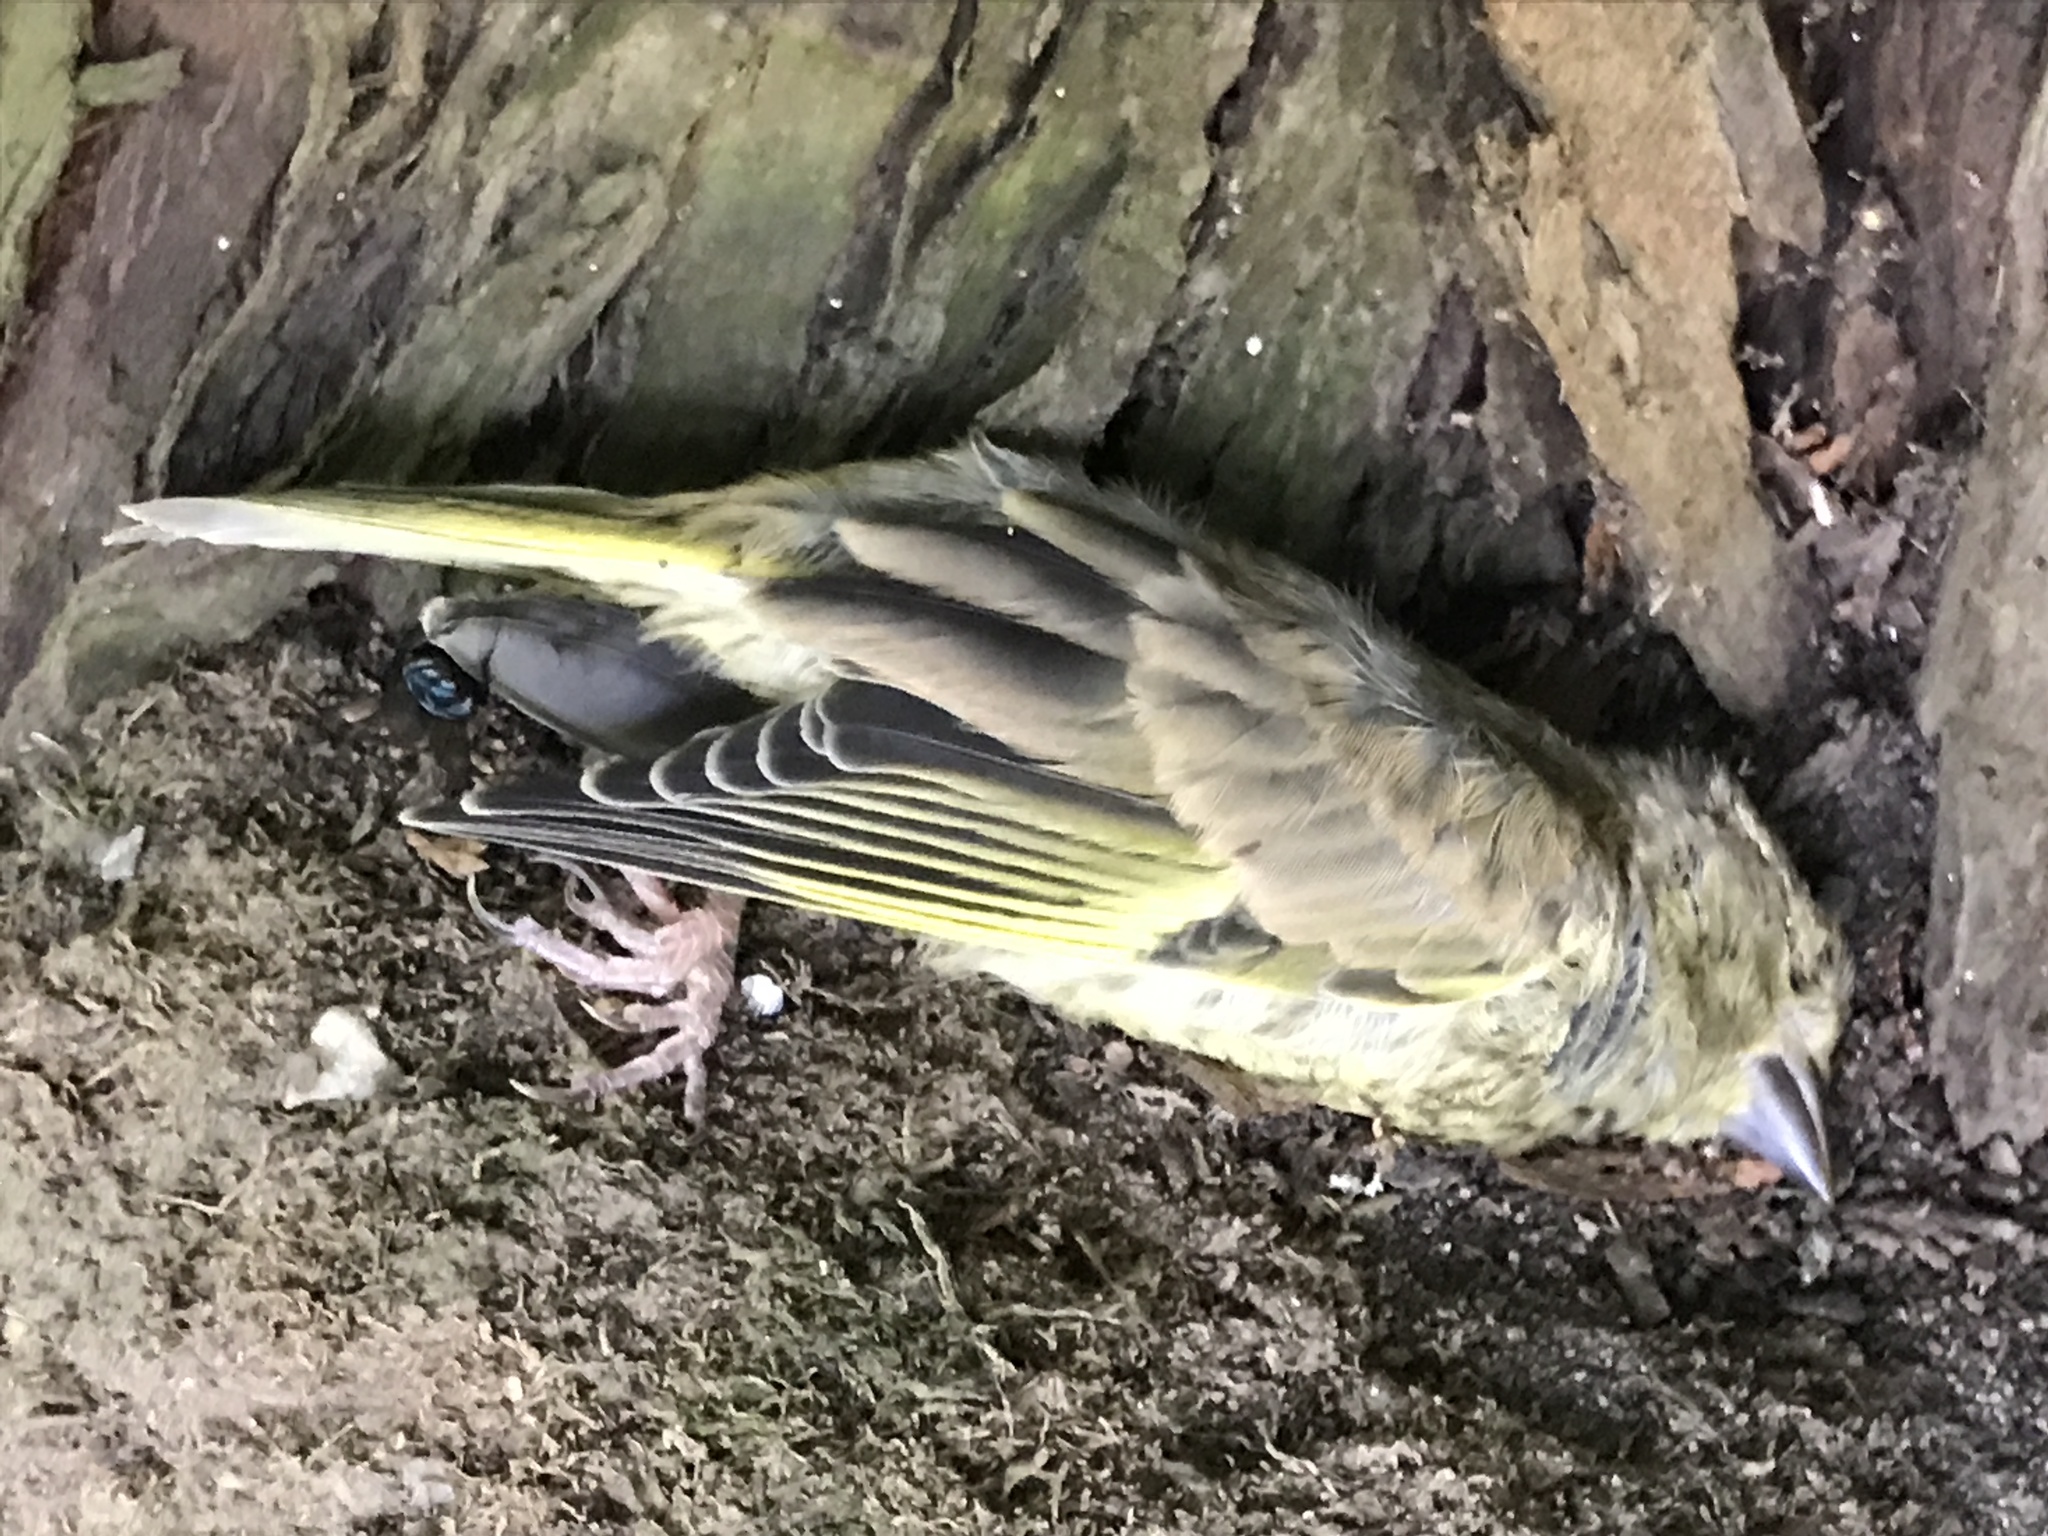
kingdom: Plantae
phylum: Tracheophyta
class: Liliopsida
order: Poales
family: Poaceae
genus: Chloris
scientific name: Chloris chloris
